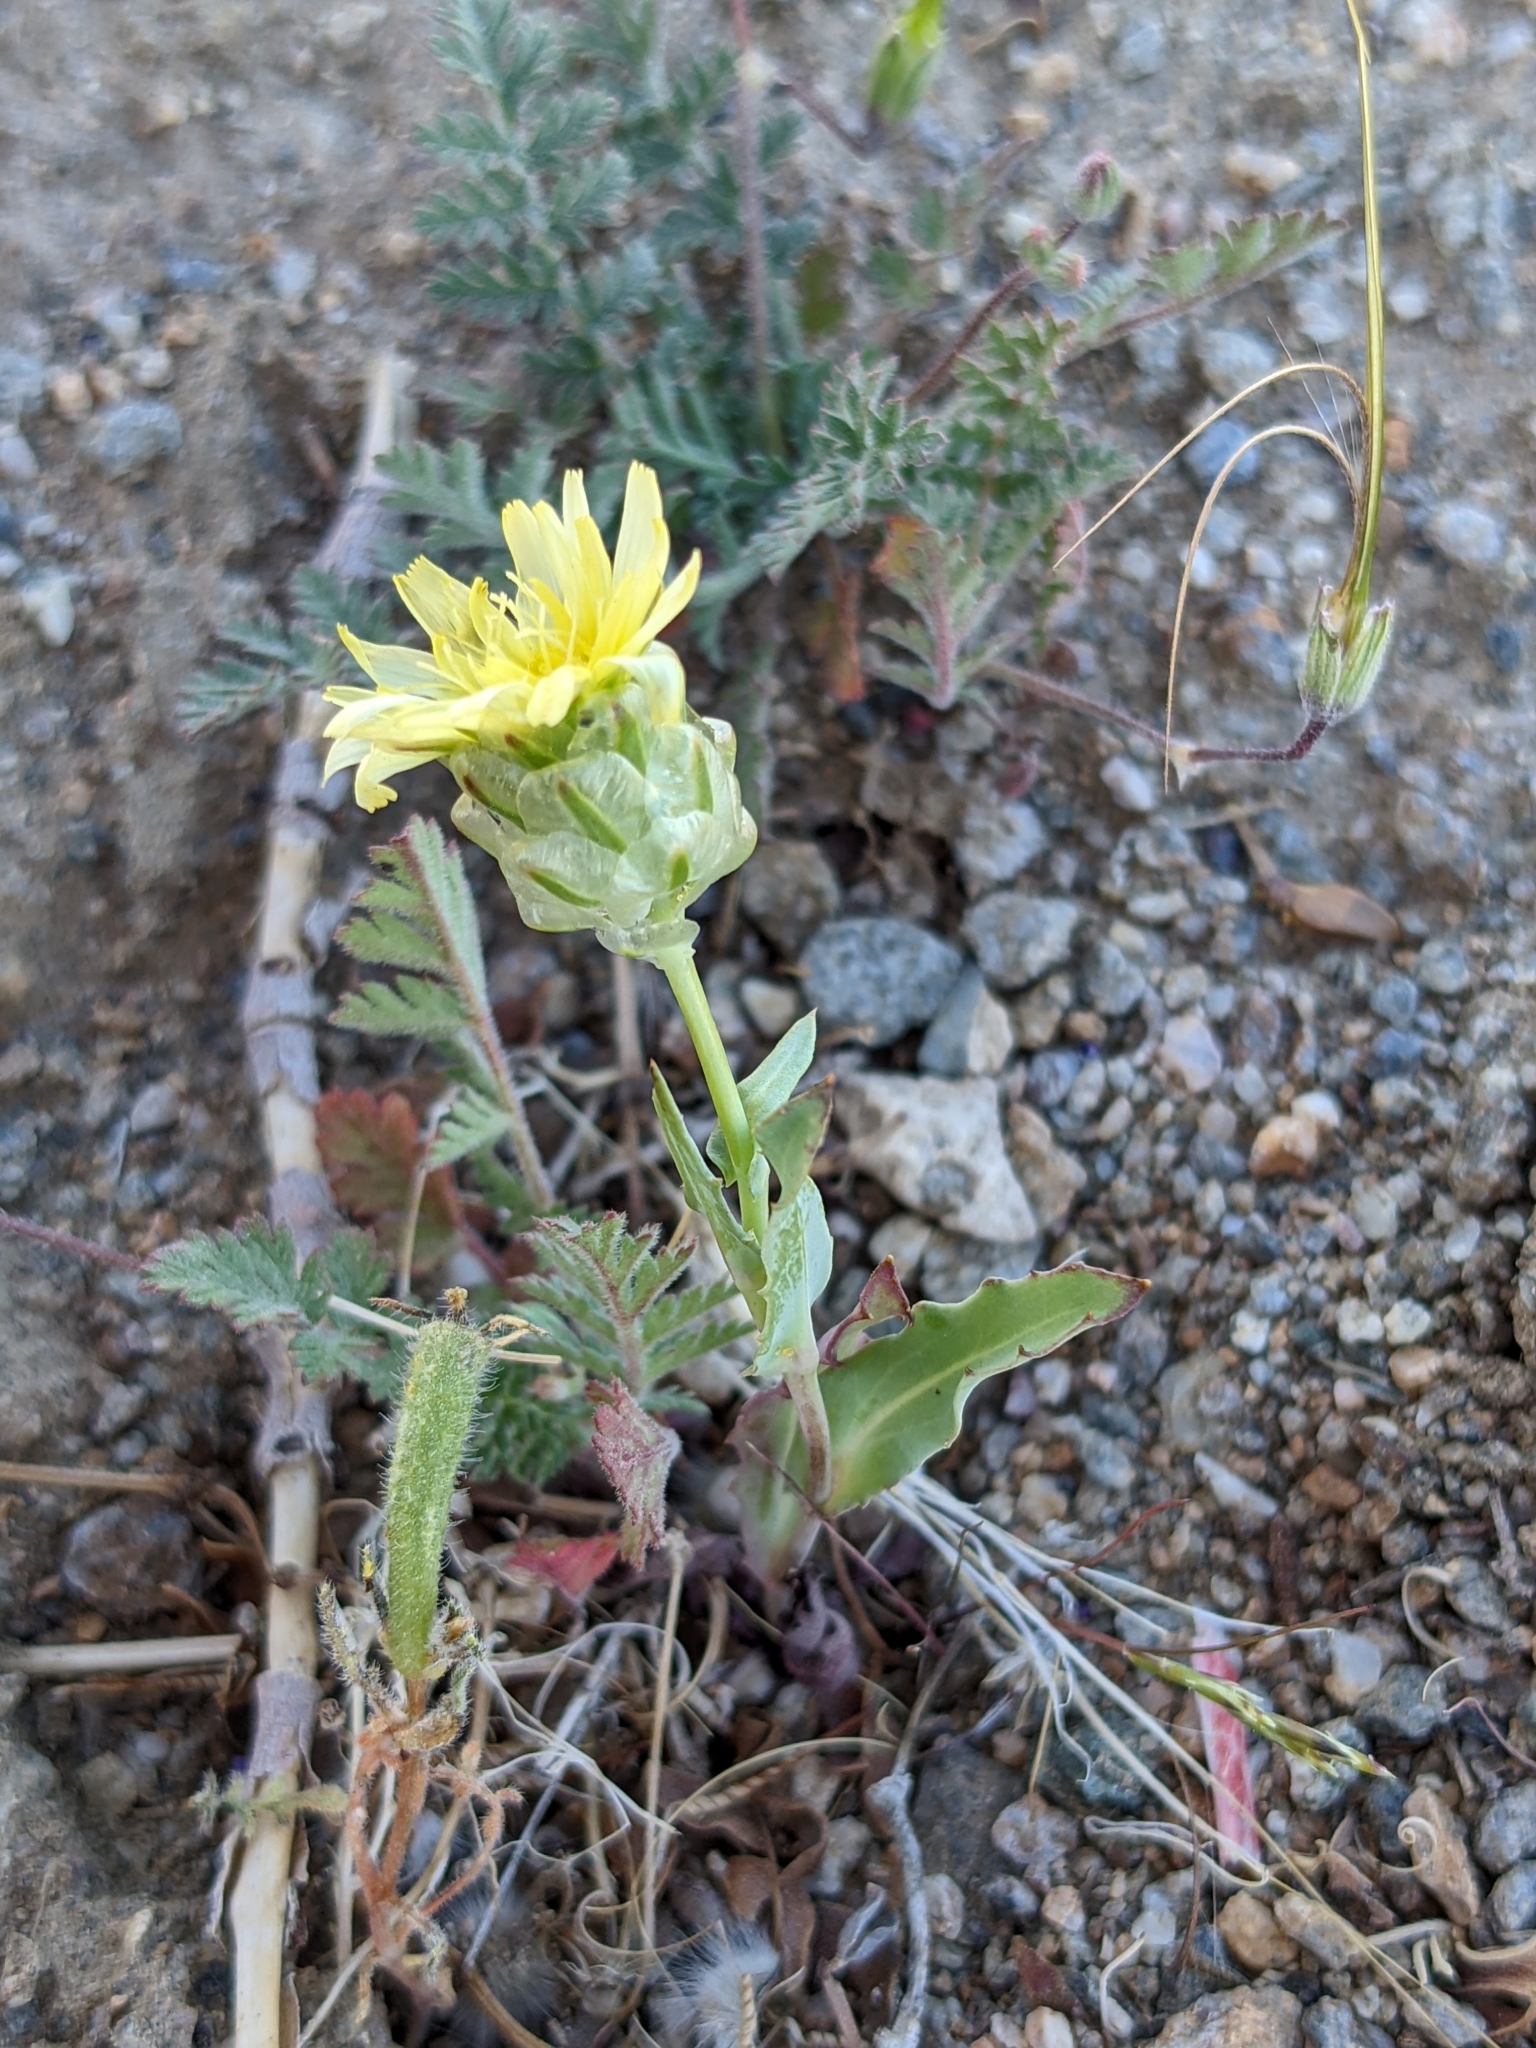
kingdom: Plantae
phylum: Tracheophyta
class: Magnoliopsida
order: Asterales
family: Asteraceae
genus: Malacothrix
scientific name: Malacothrix coulteri
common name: Snake's-head
